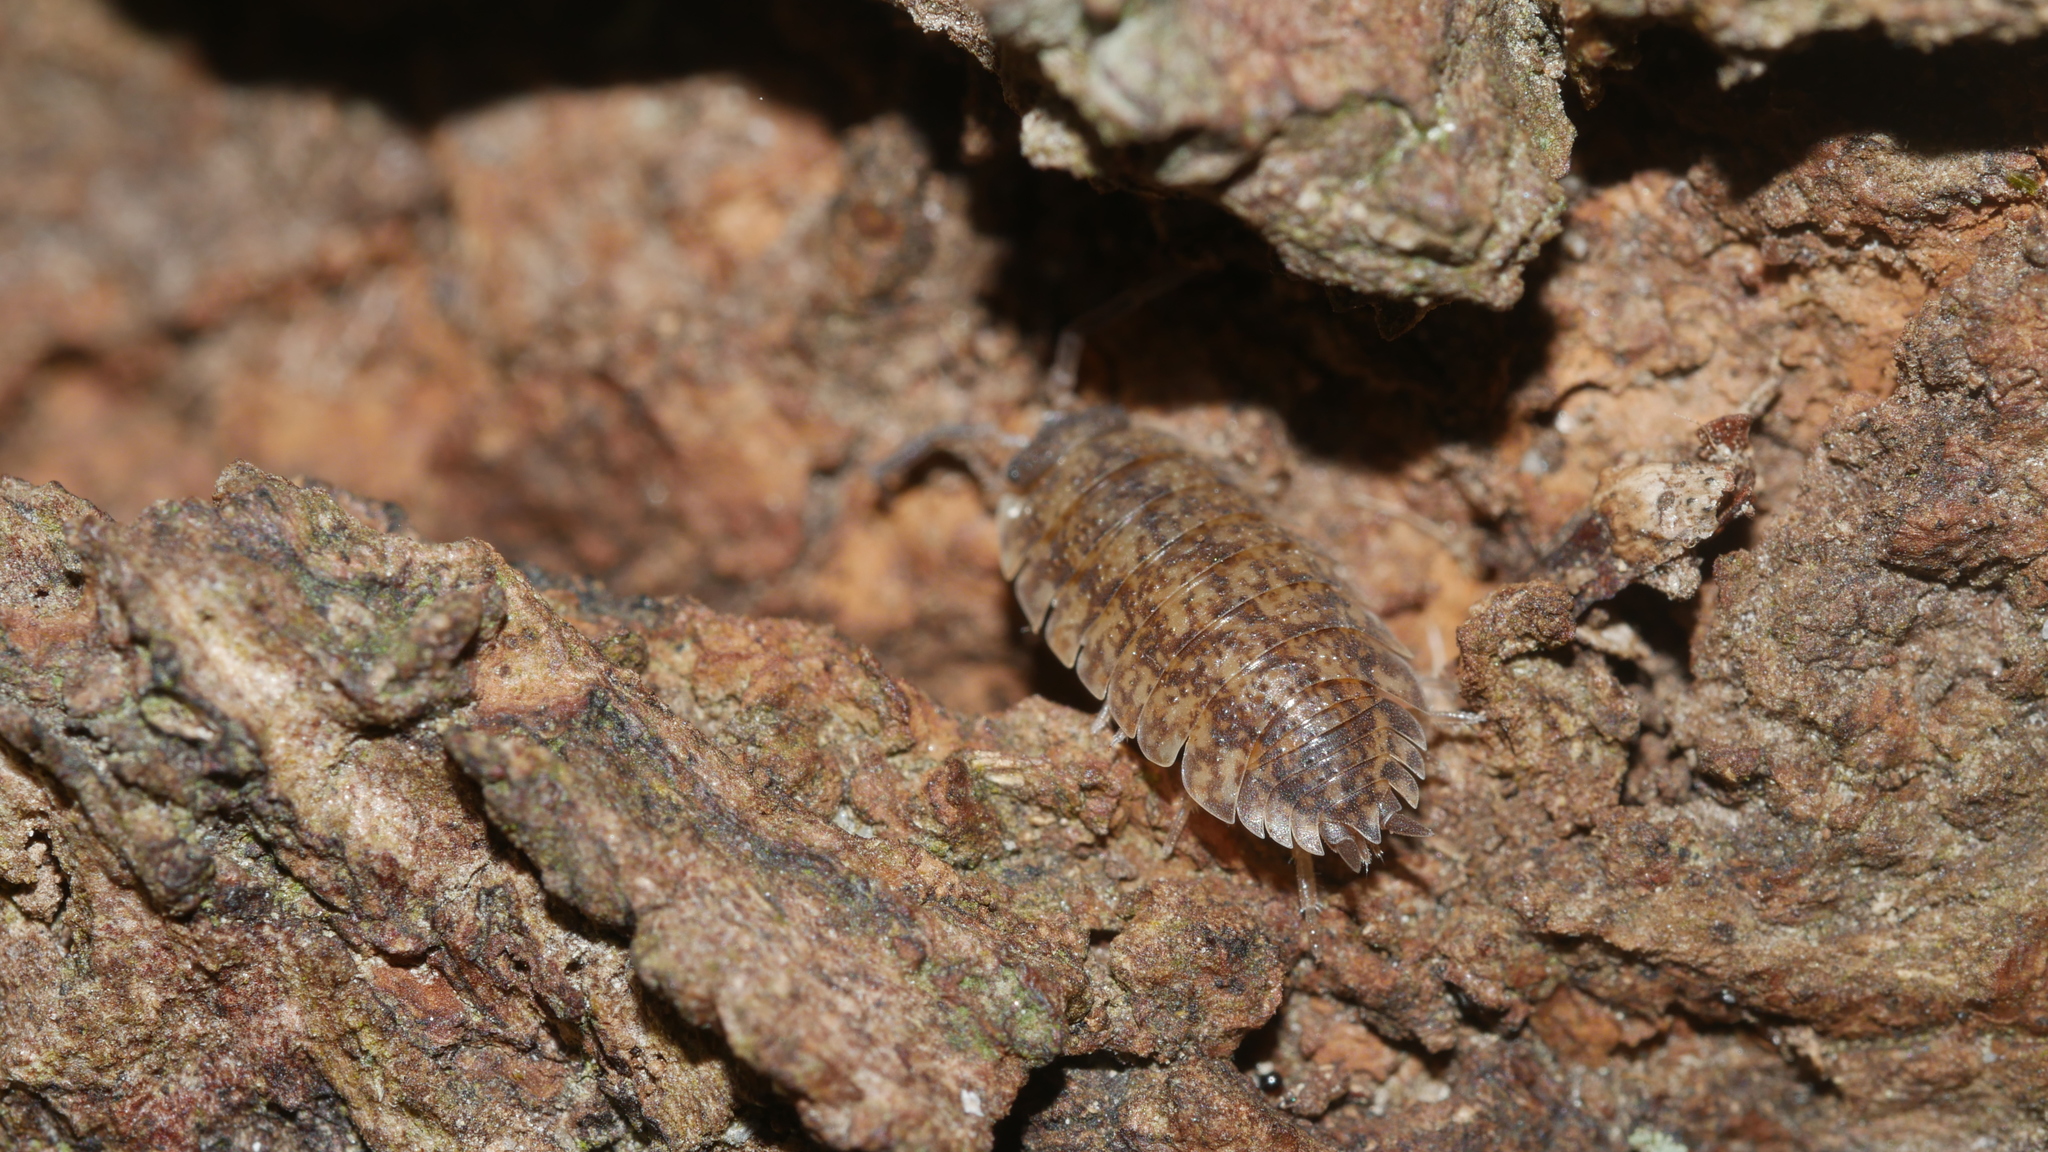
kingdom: Animalia
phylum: Arthropoda
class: Malacostraca
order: Isopoda
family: Porcellionidae
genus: Porcellio
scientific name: Porcellio scaber
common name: Common rough woodlouse
